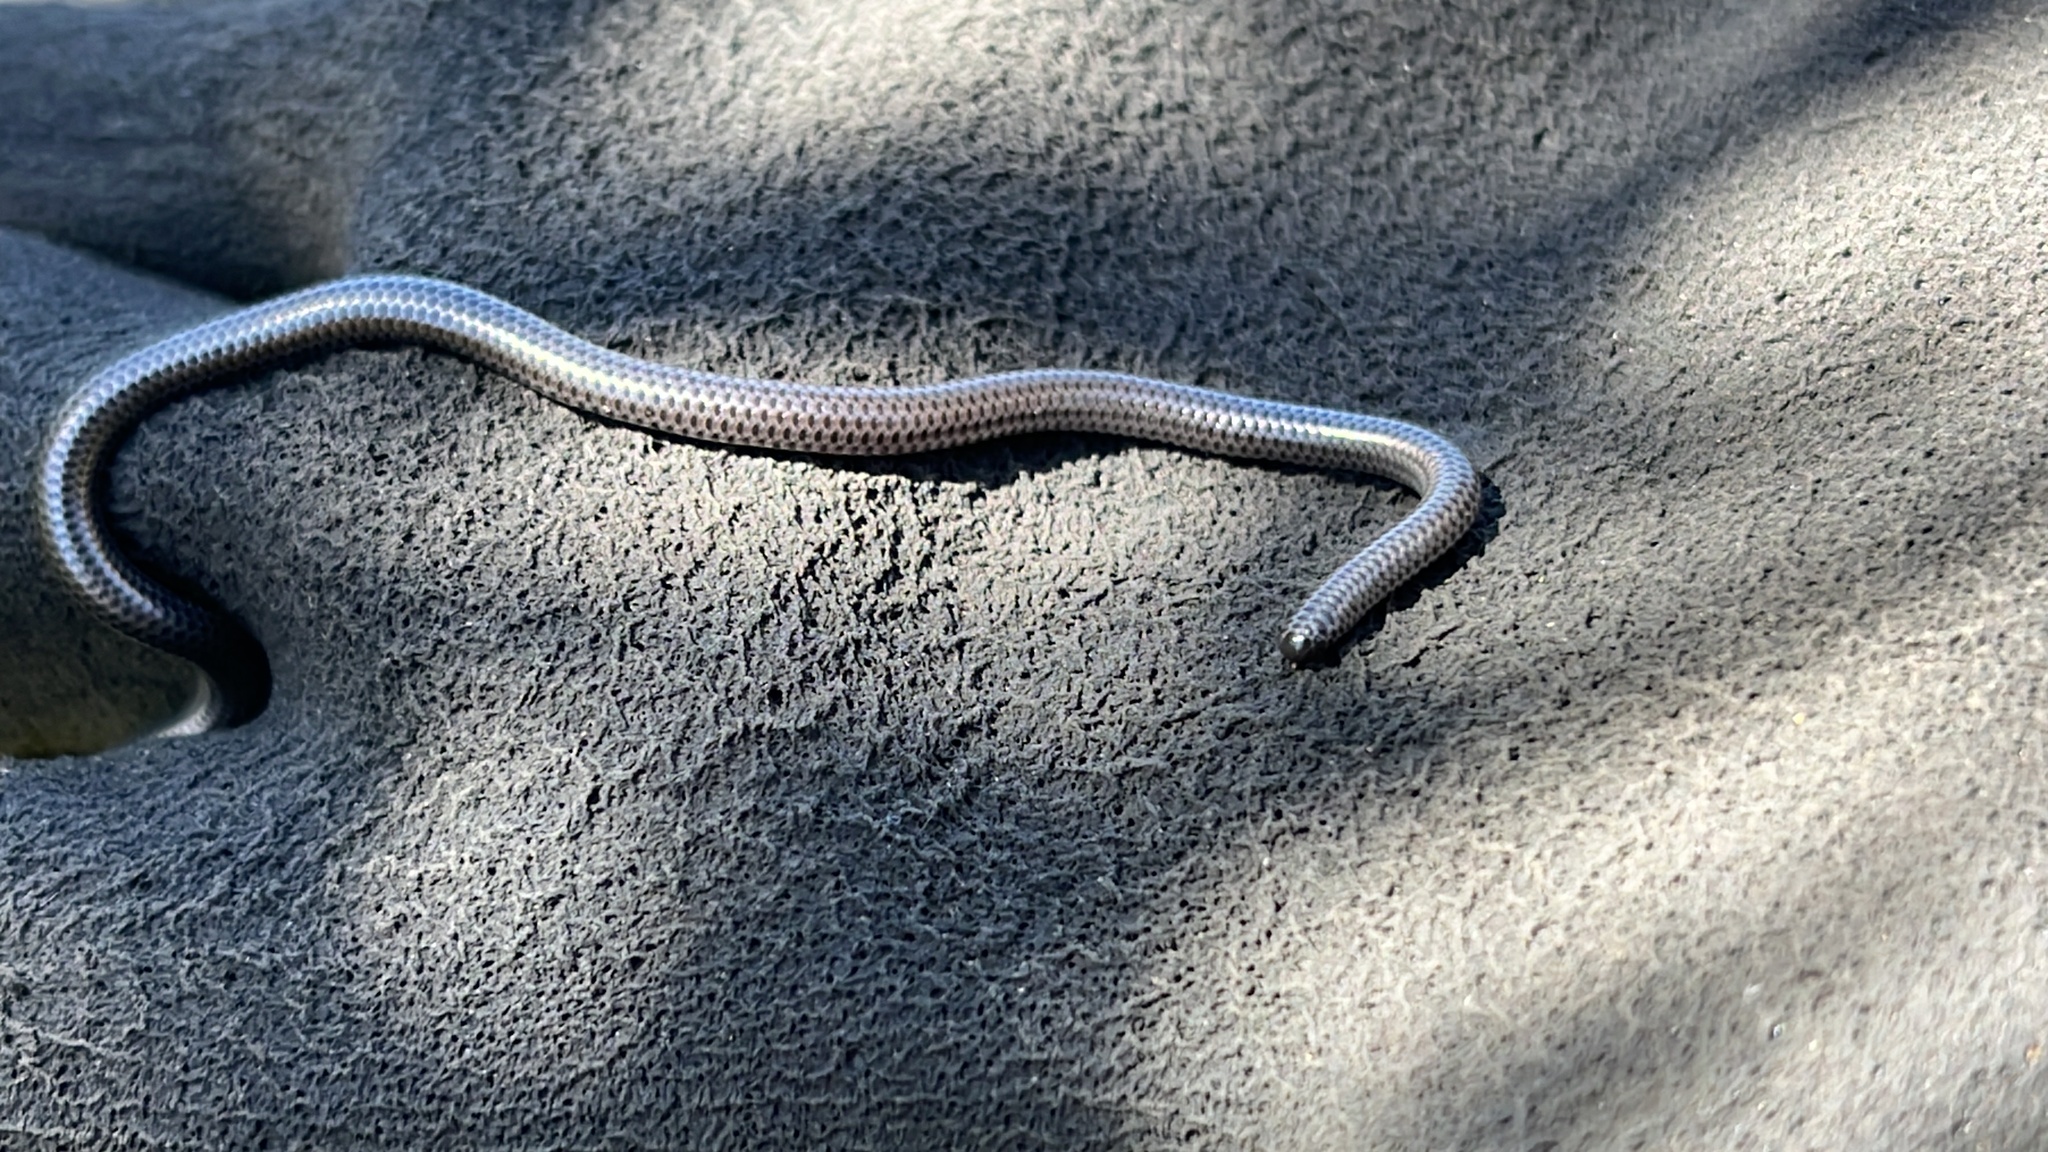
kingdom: Animalia
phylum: Chordata
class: Squamata
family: Leptotyphlopidae
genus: Leptotyphlops
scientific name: Leptotyphlops nigricans
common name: Black thread snake
